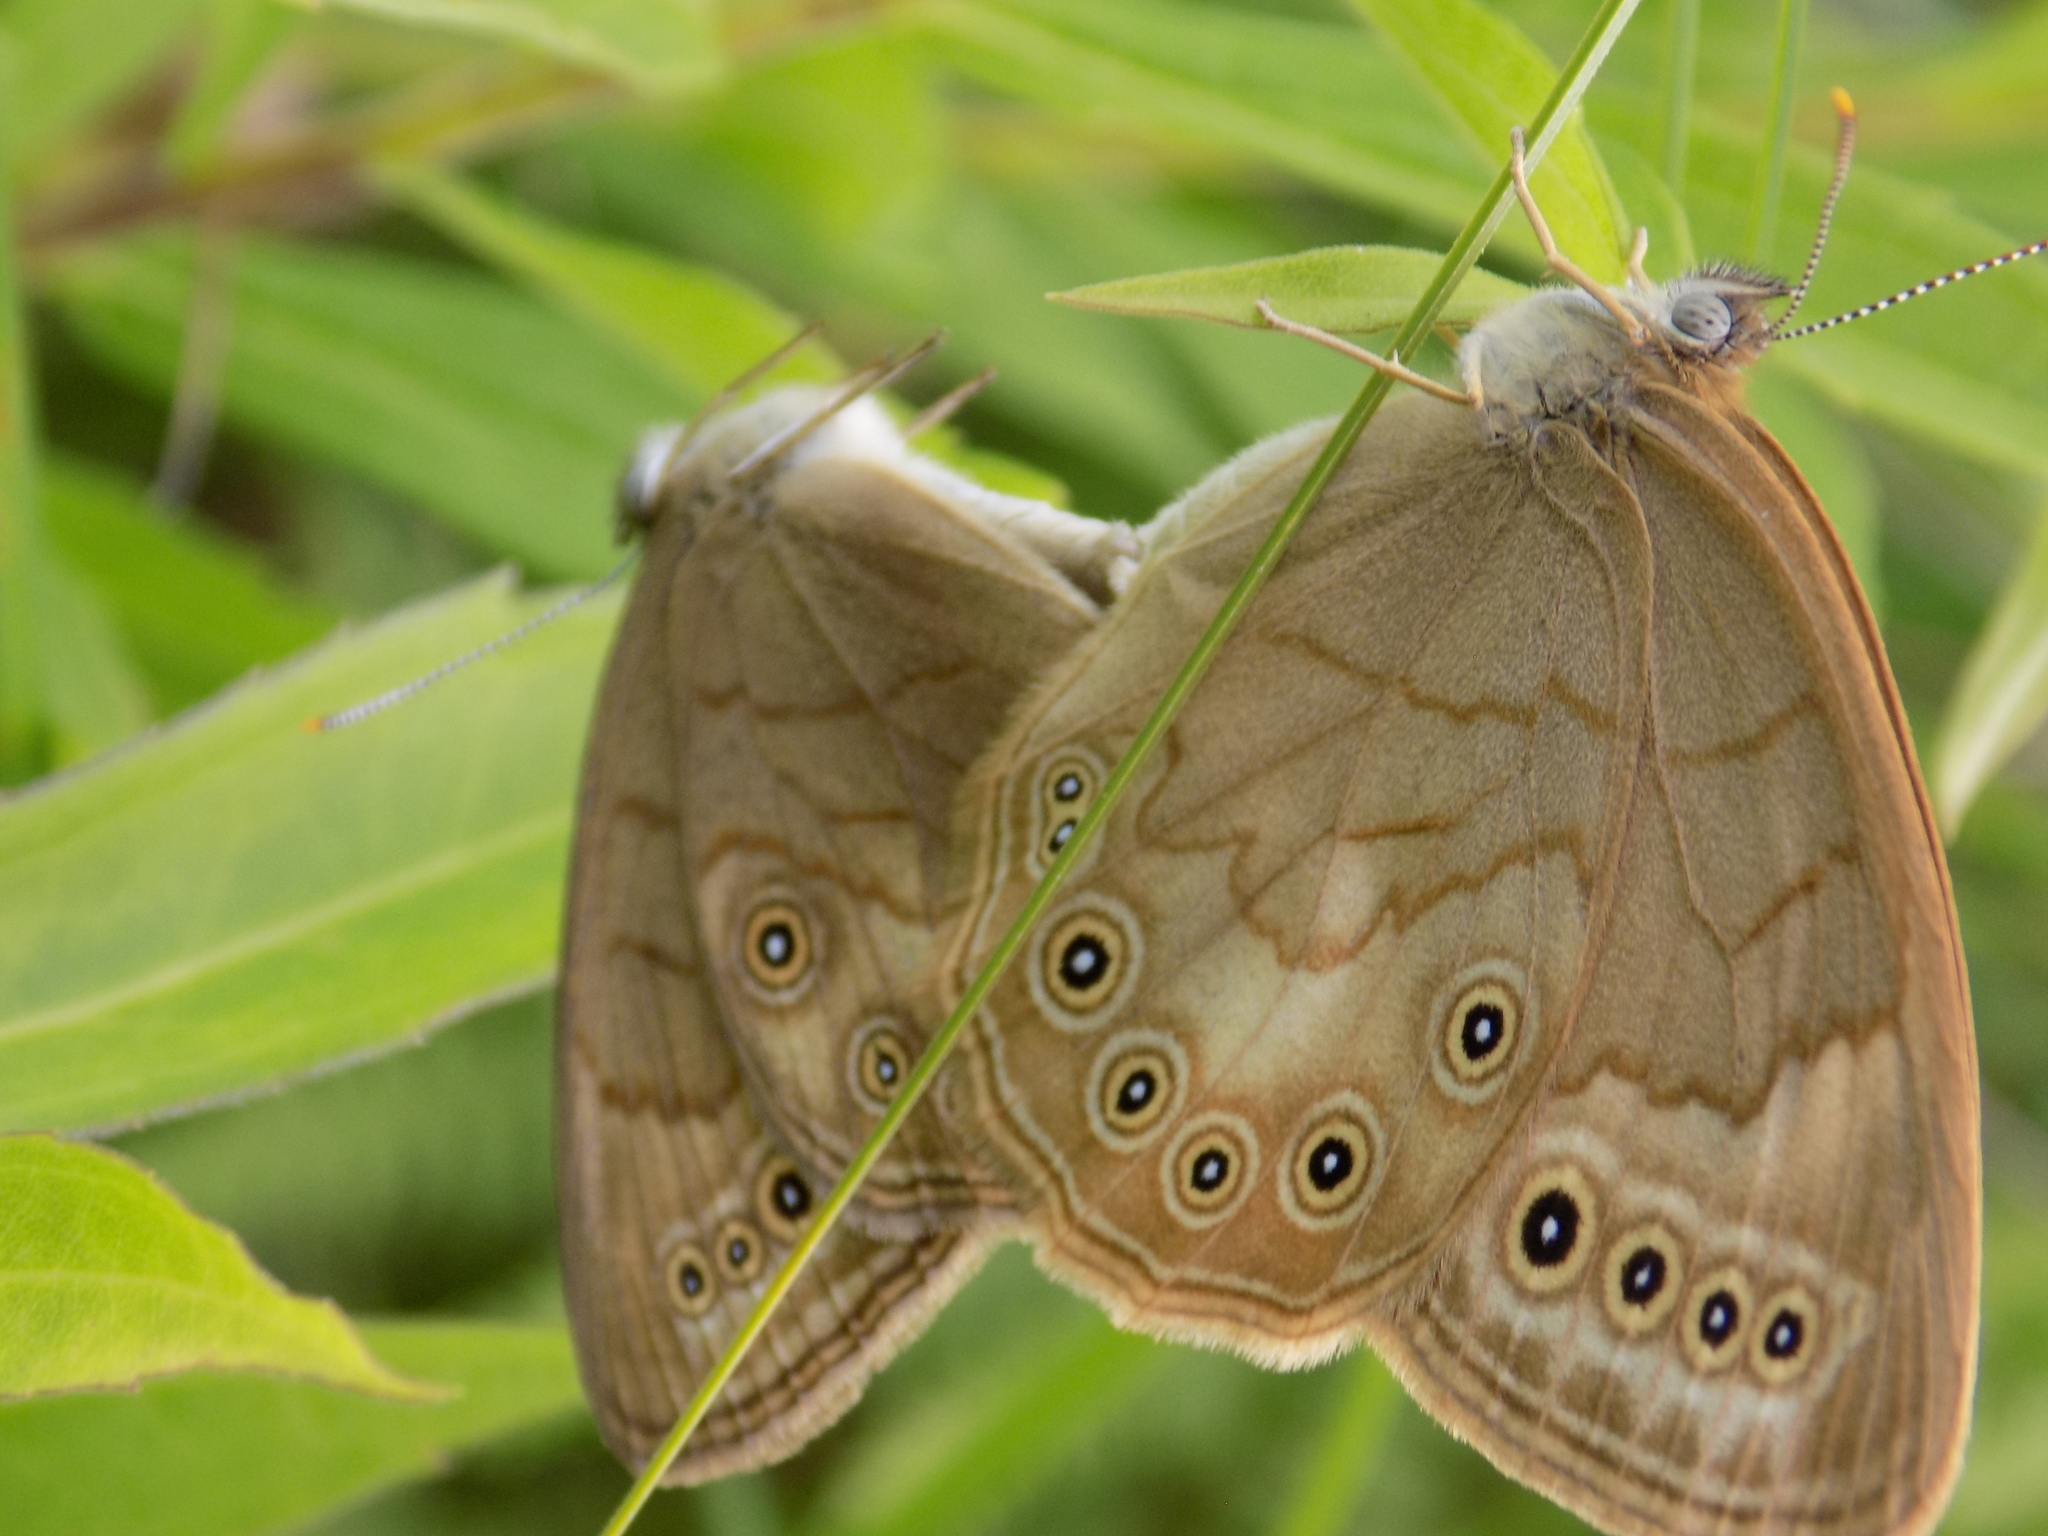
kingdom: Animalia
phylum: Arthropoda
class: Insecta
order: Lepidoptera
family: Nymphalidae
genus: Lethe
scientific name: Lethe eurydice
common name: Eyed brown
